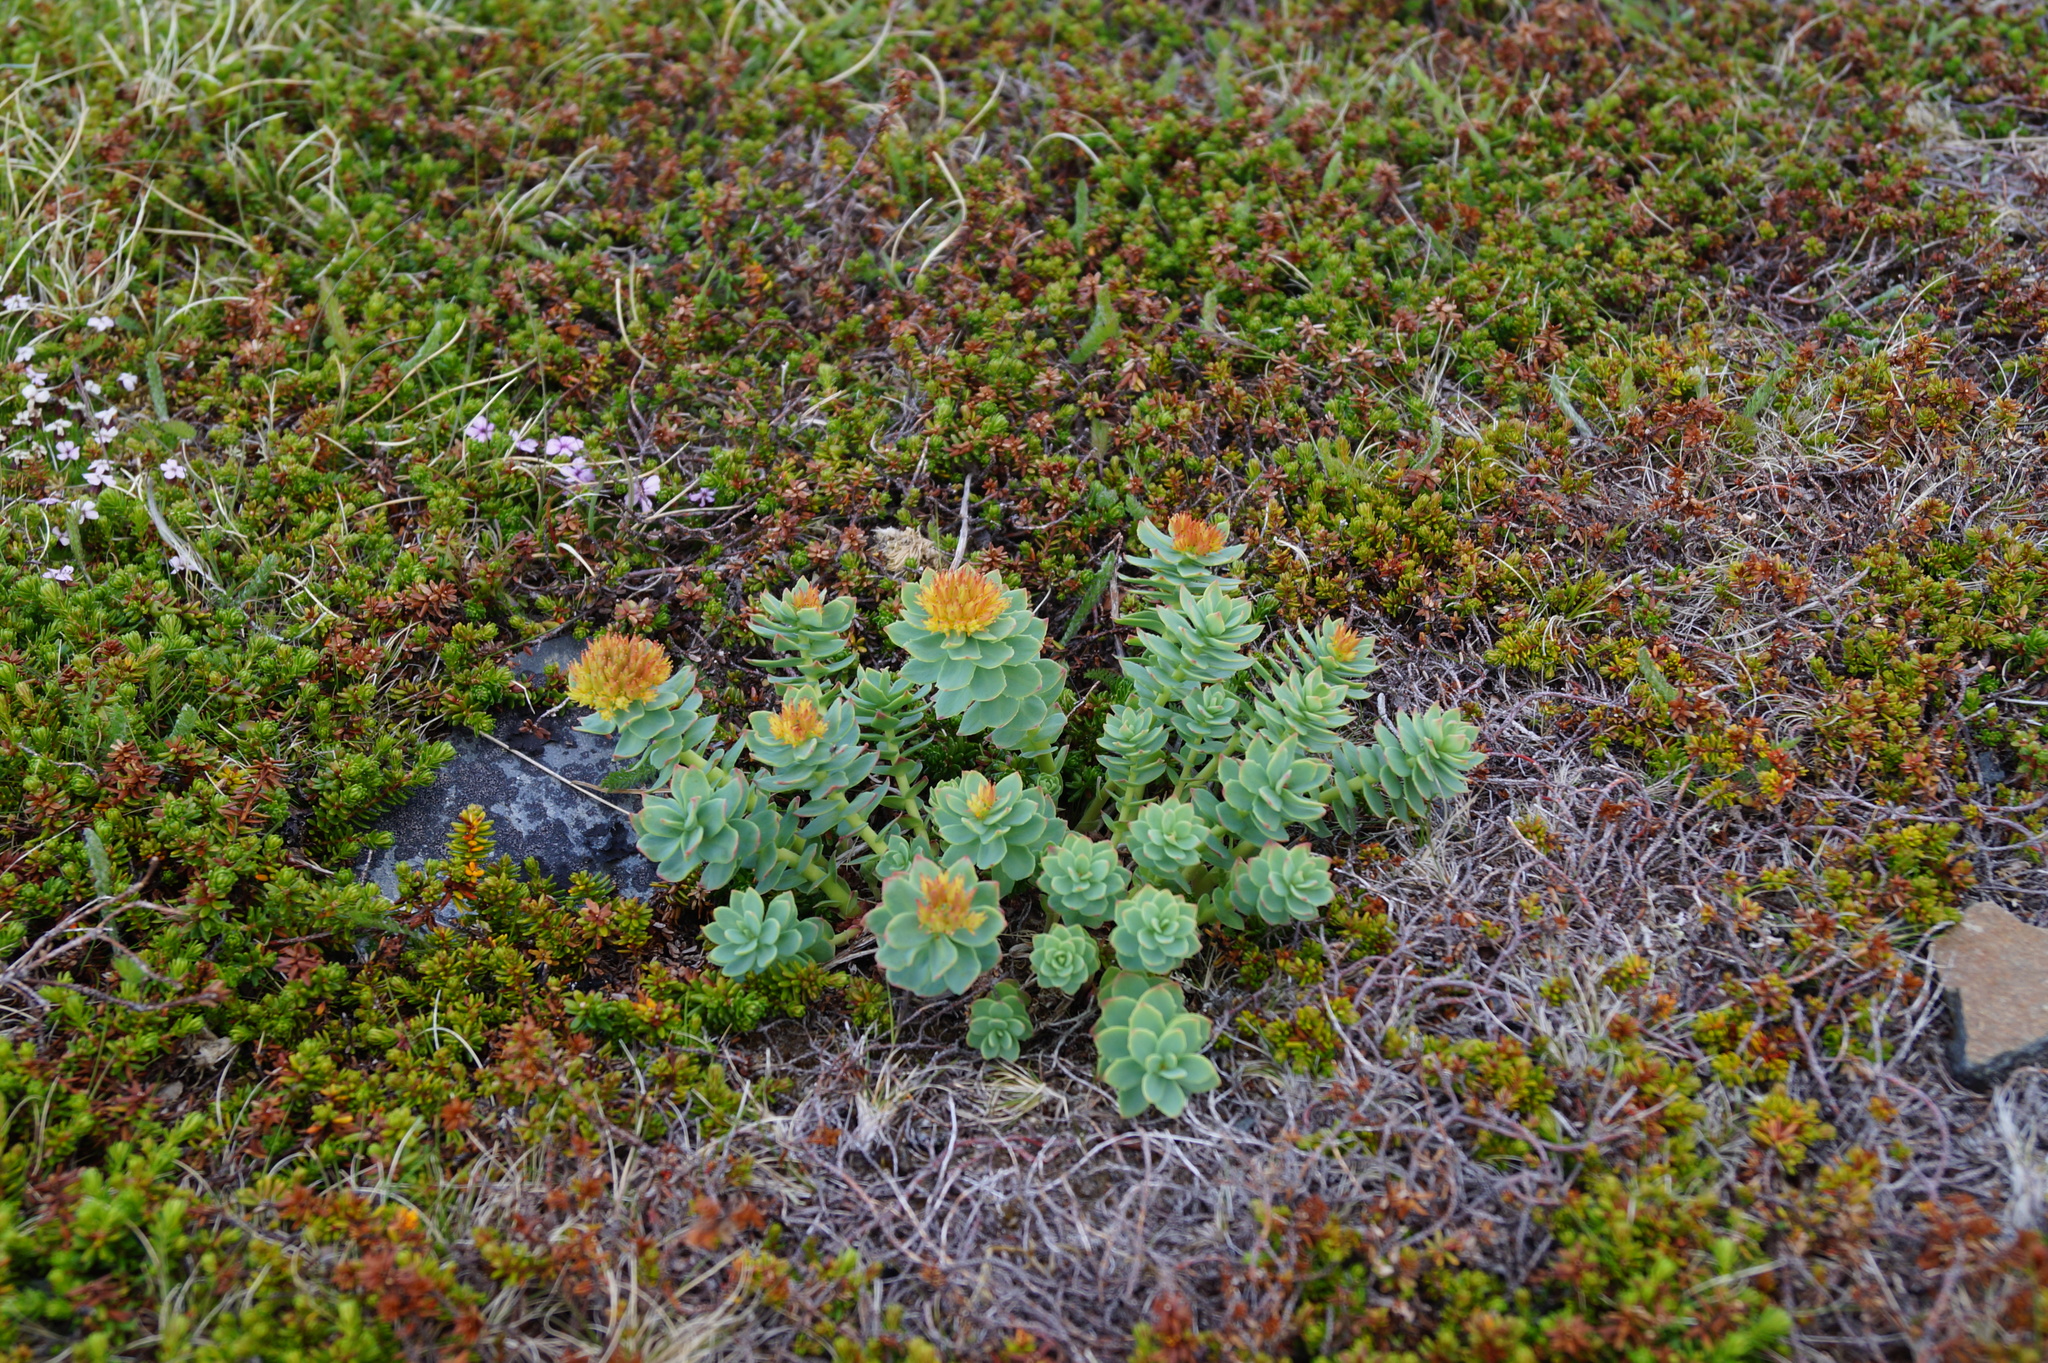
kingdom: Plantae
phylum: Tracheophyta
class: Magnoliopsida
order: Saxifragales
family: Crassulaceae
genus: Rhodiola
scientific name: Rhodiola rosea
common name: Roseroot
